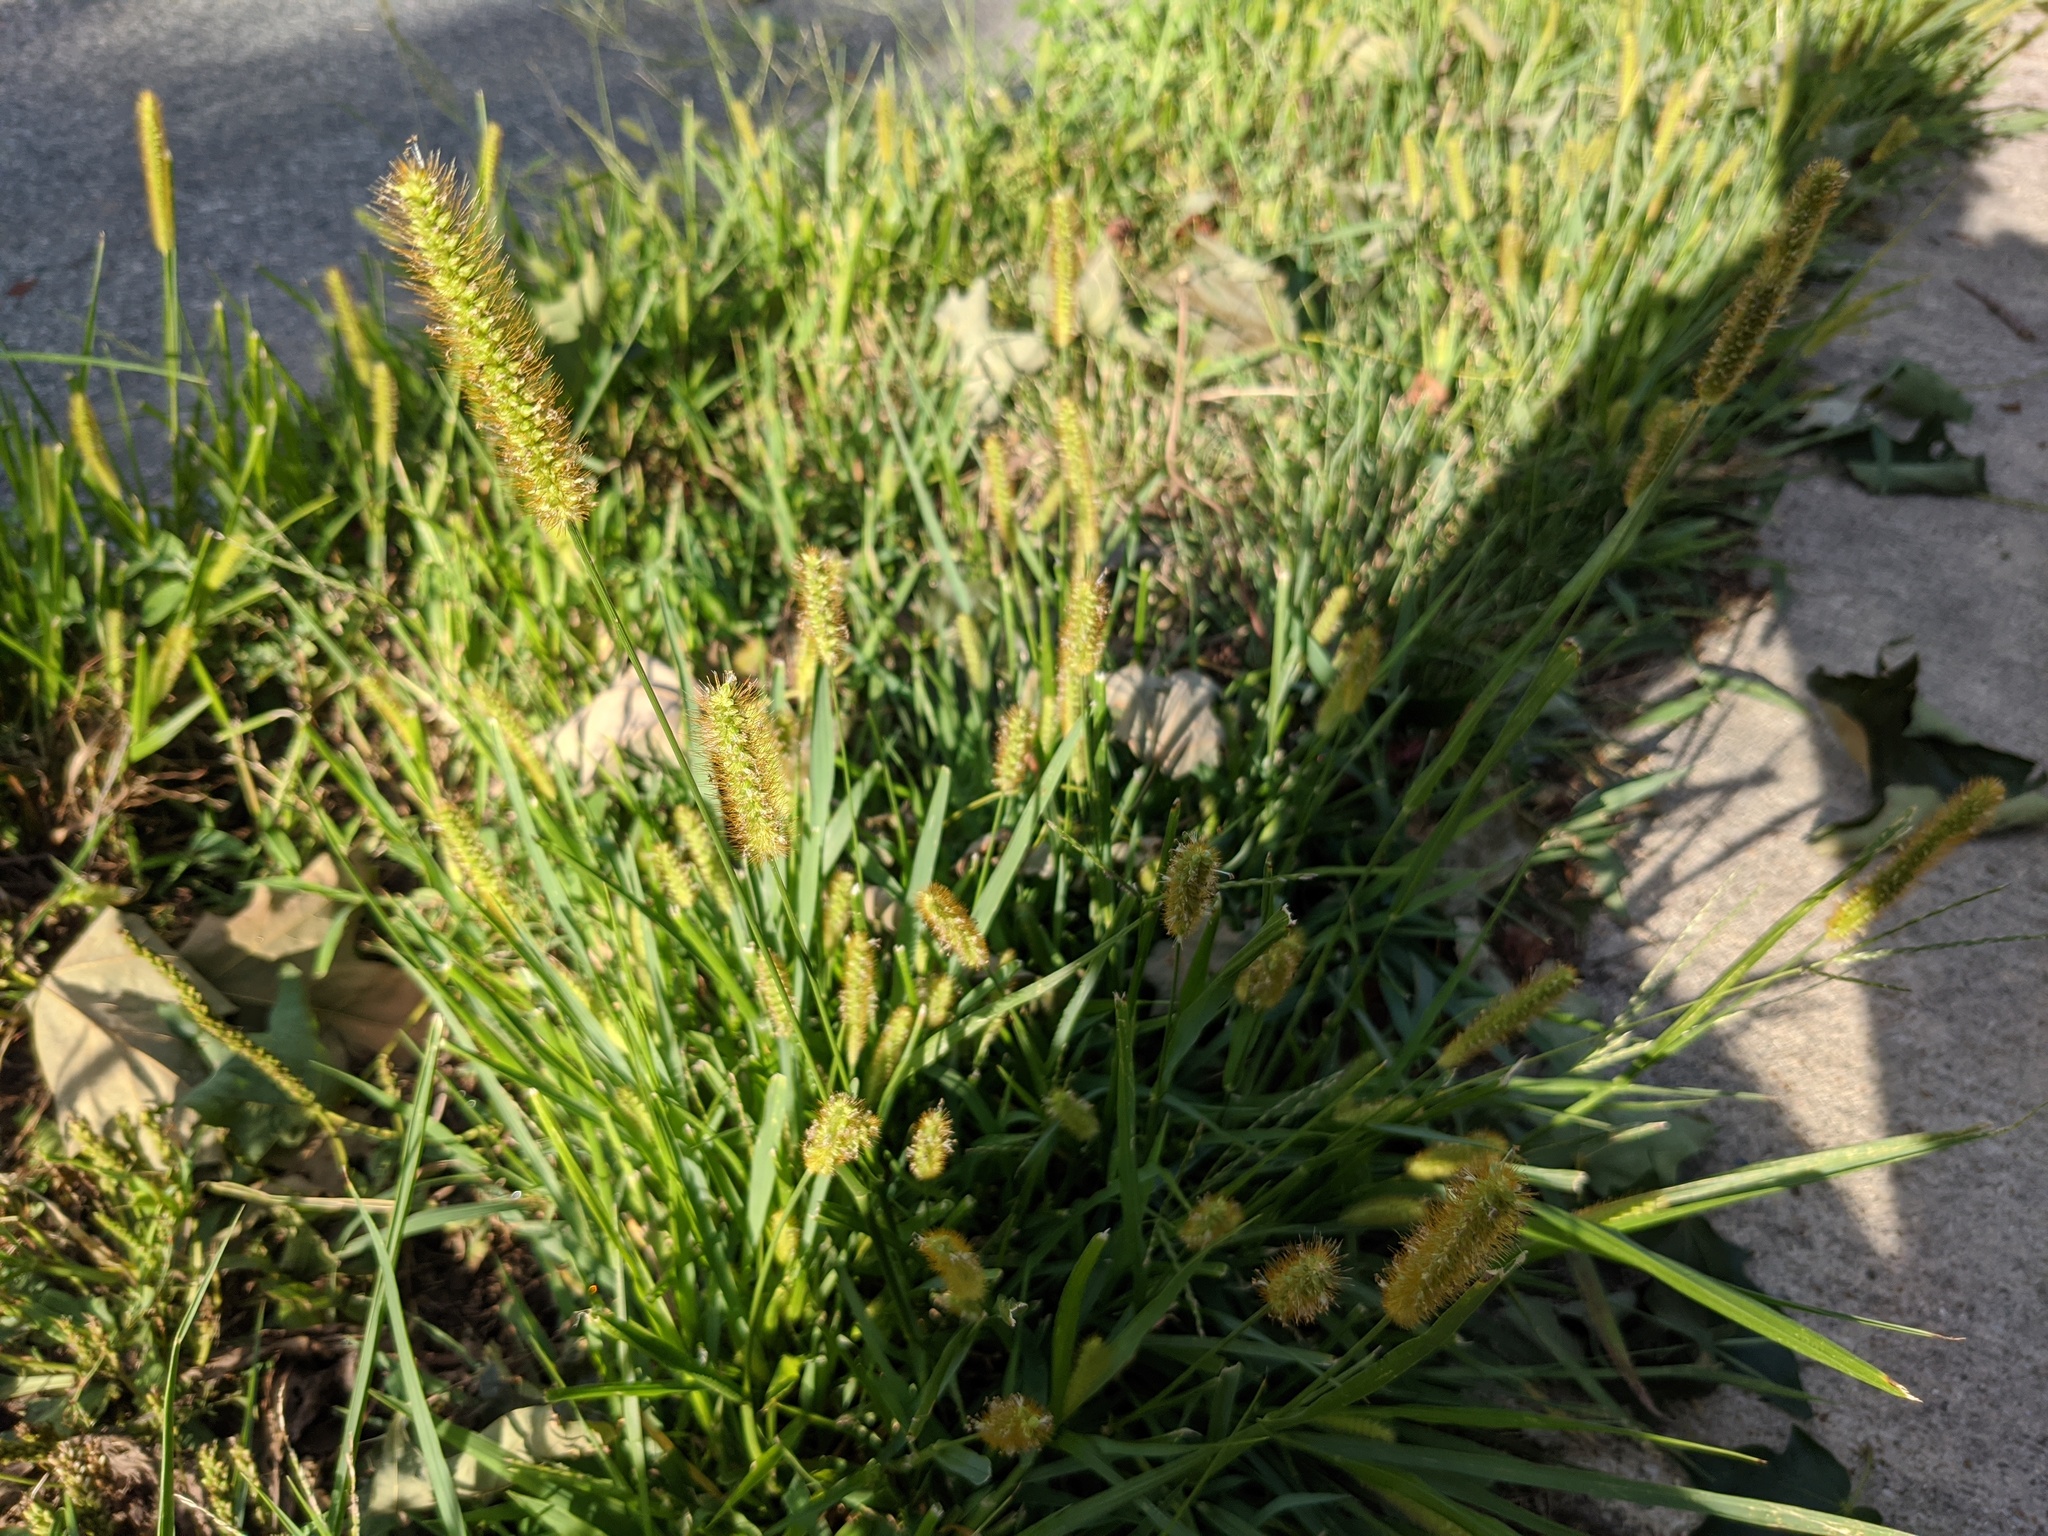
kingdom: Plantae
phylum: Tracheophyta
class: Liliopsida
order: Poales
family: Poaceae
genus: Setaria
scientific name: Setaria pumila
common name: Yellow bristle-grass
